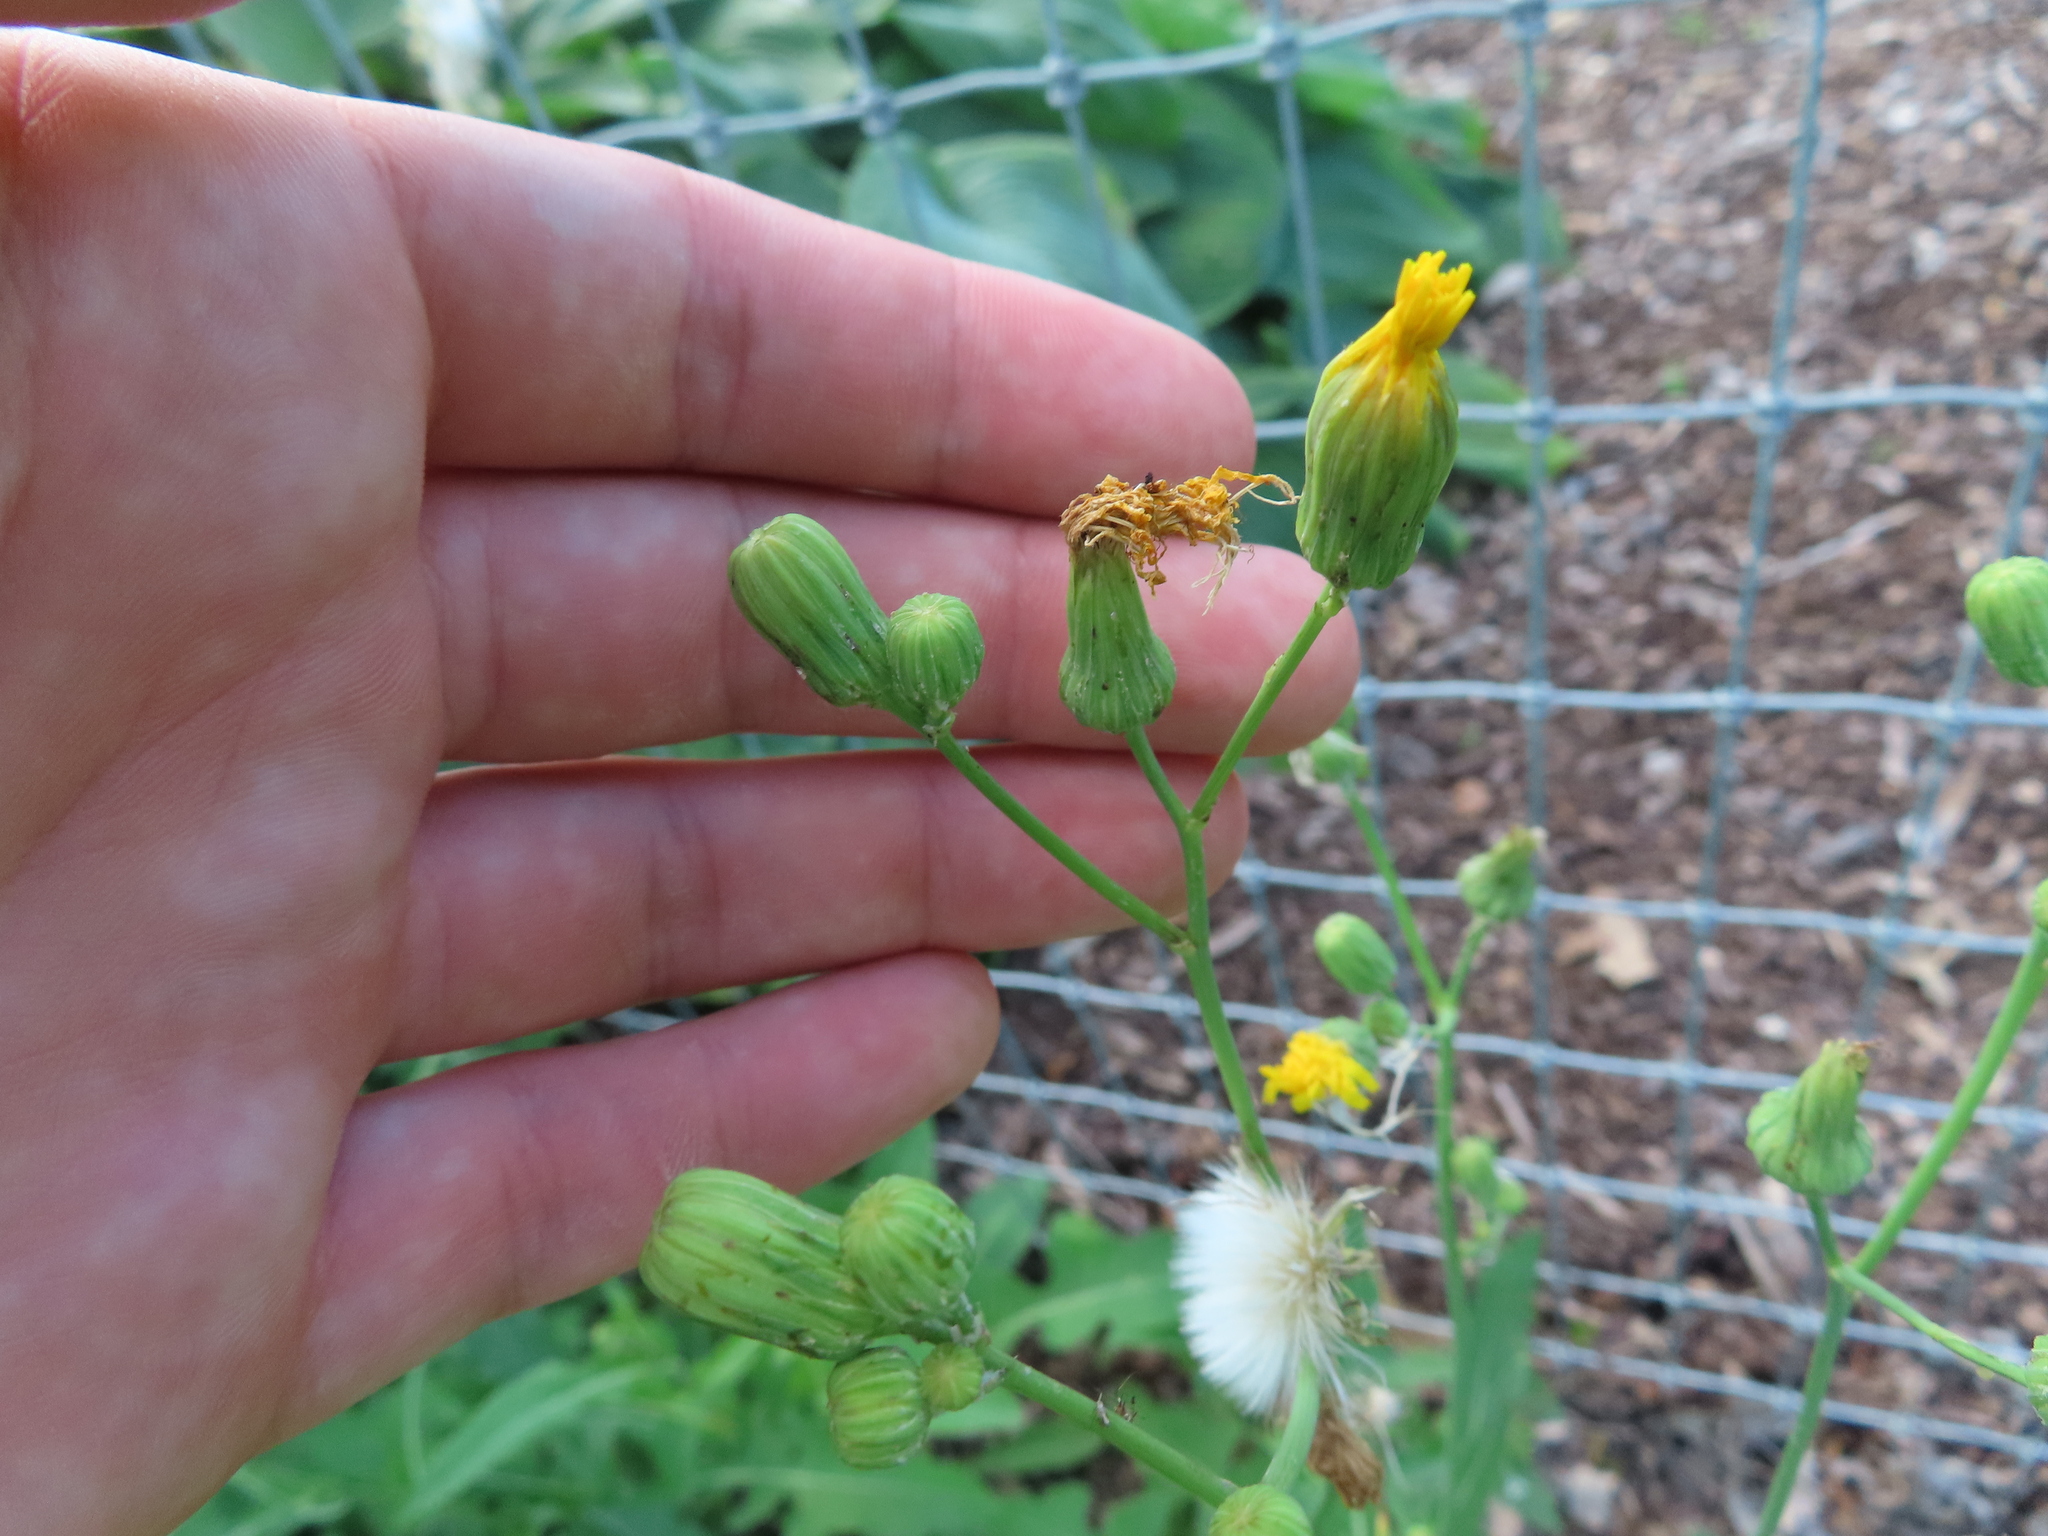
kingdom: Plantae
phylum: Tracheophyta
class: Magnoliopsida
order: Asterales
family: Asteraceae
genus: Sonchus
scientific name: Sonchus arvensis
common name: Perennial sow-thistle
